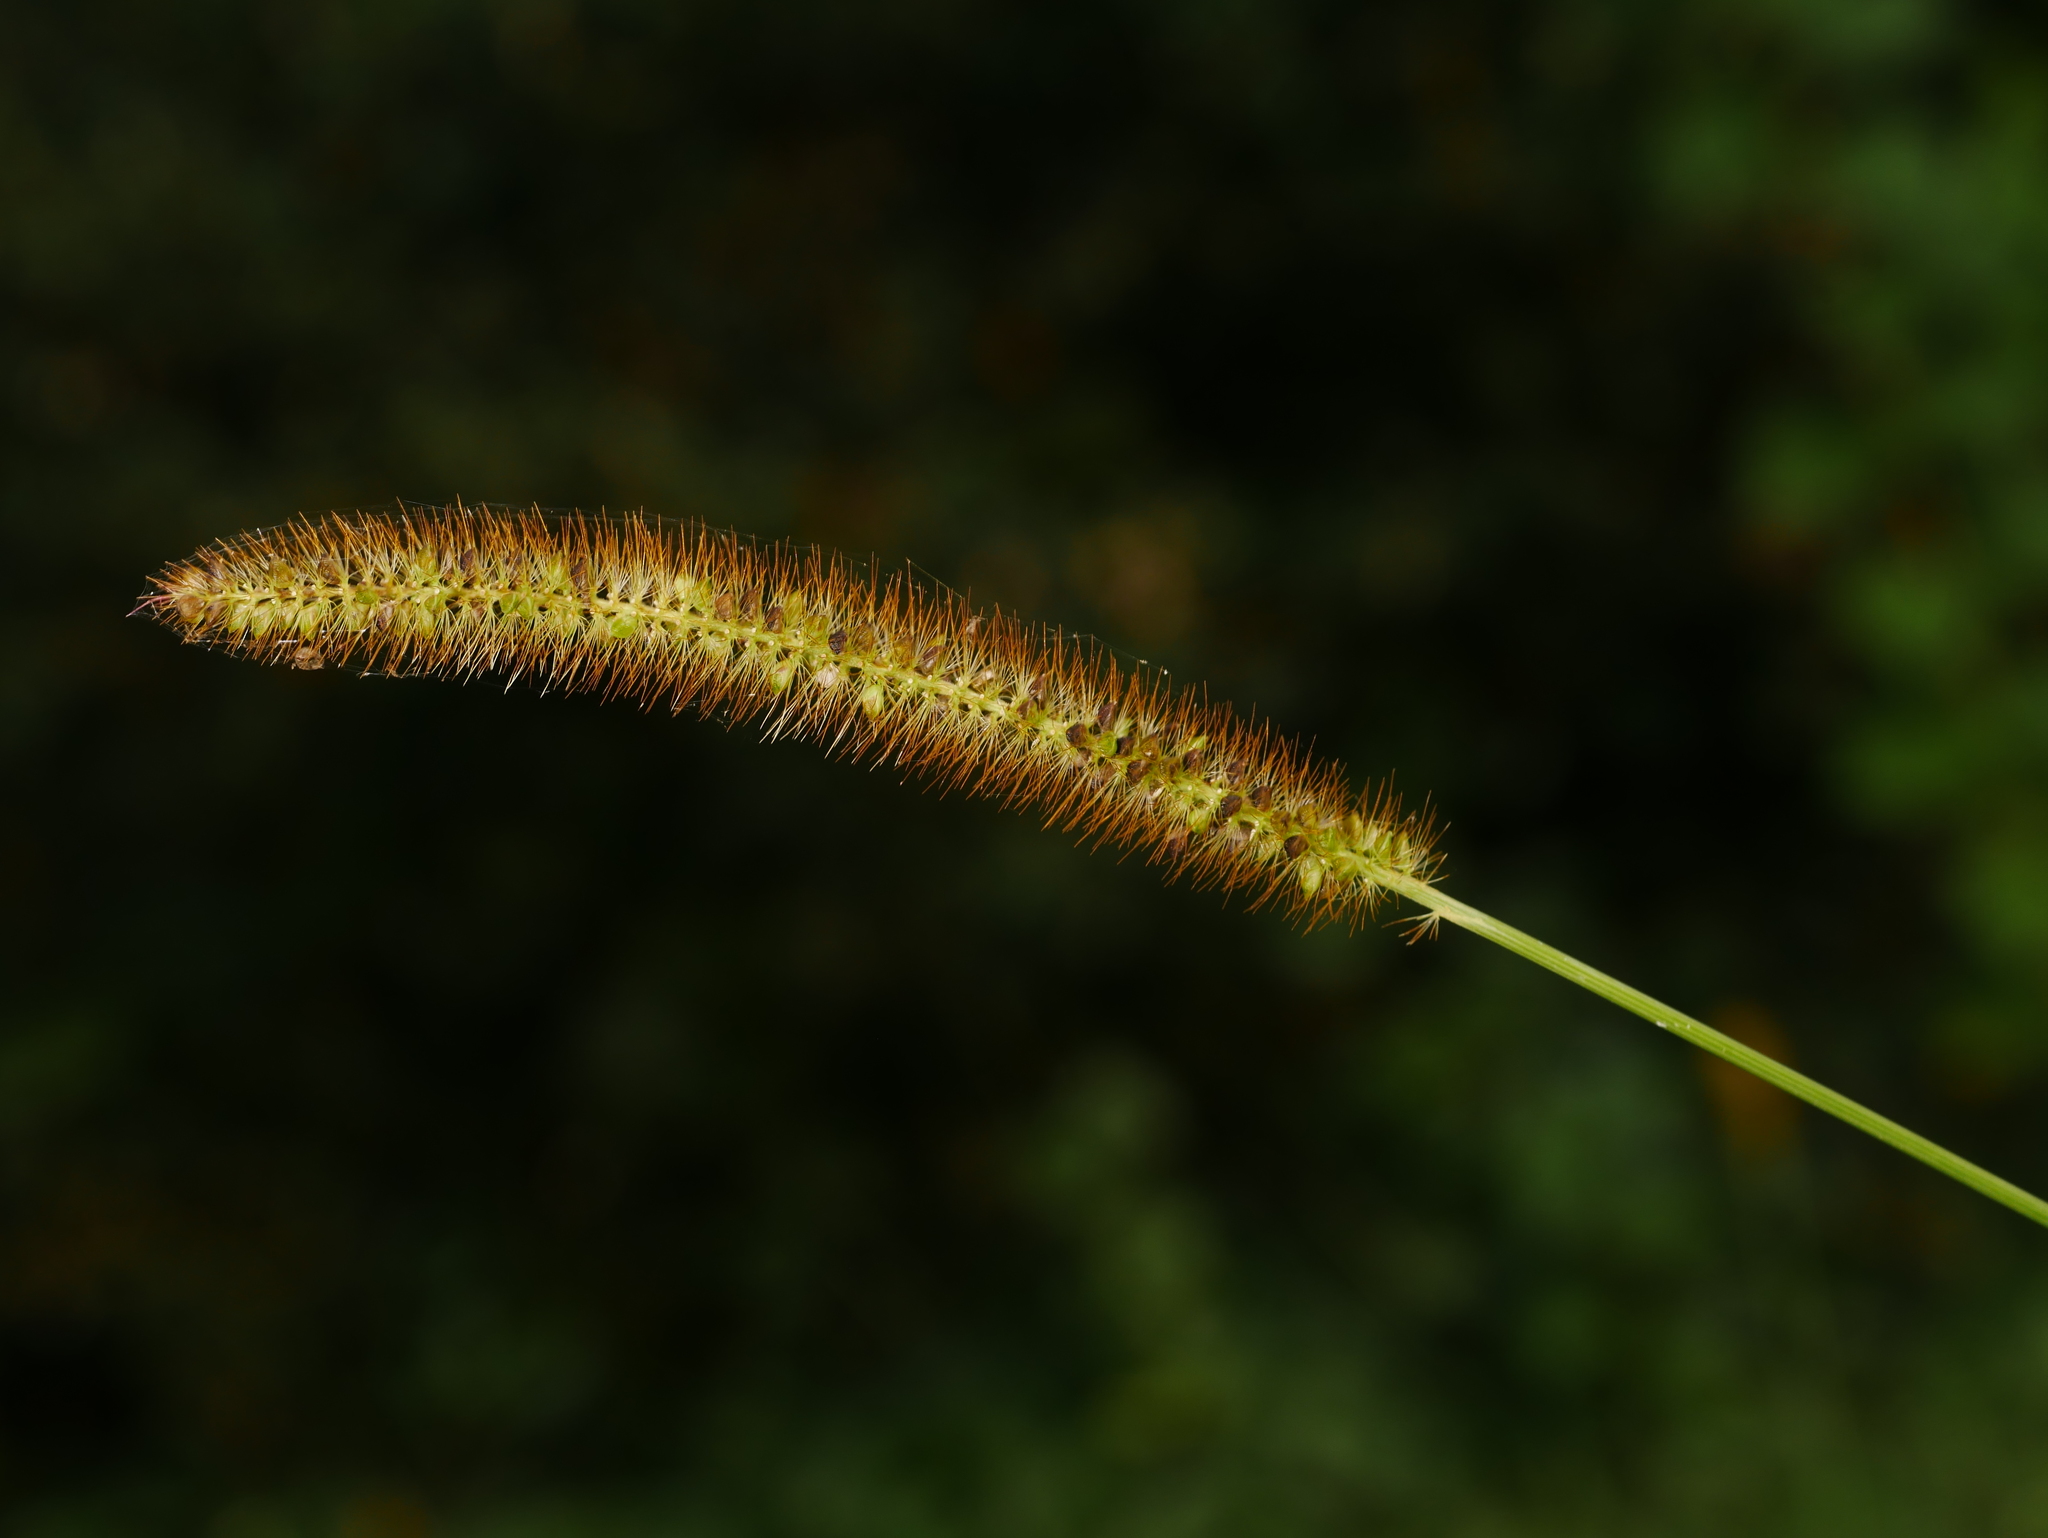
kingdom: Plantae
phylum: Tracheophyta
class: Liliopsida
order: Poales
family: Poaceae
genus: Setaria
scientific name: Setaria pumila
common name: Yellow bristle-grass
